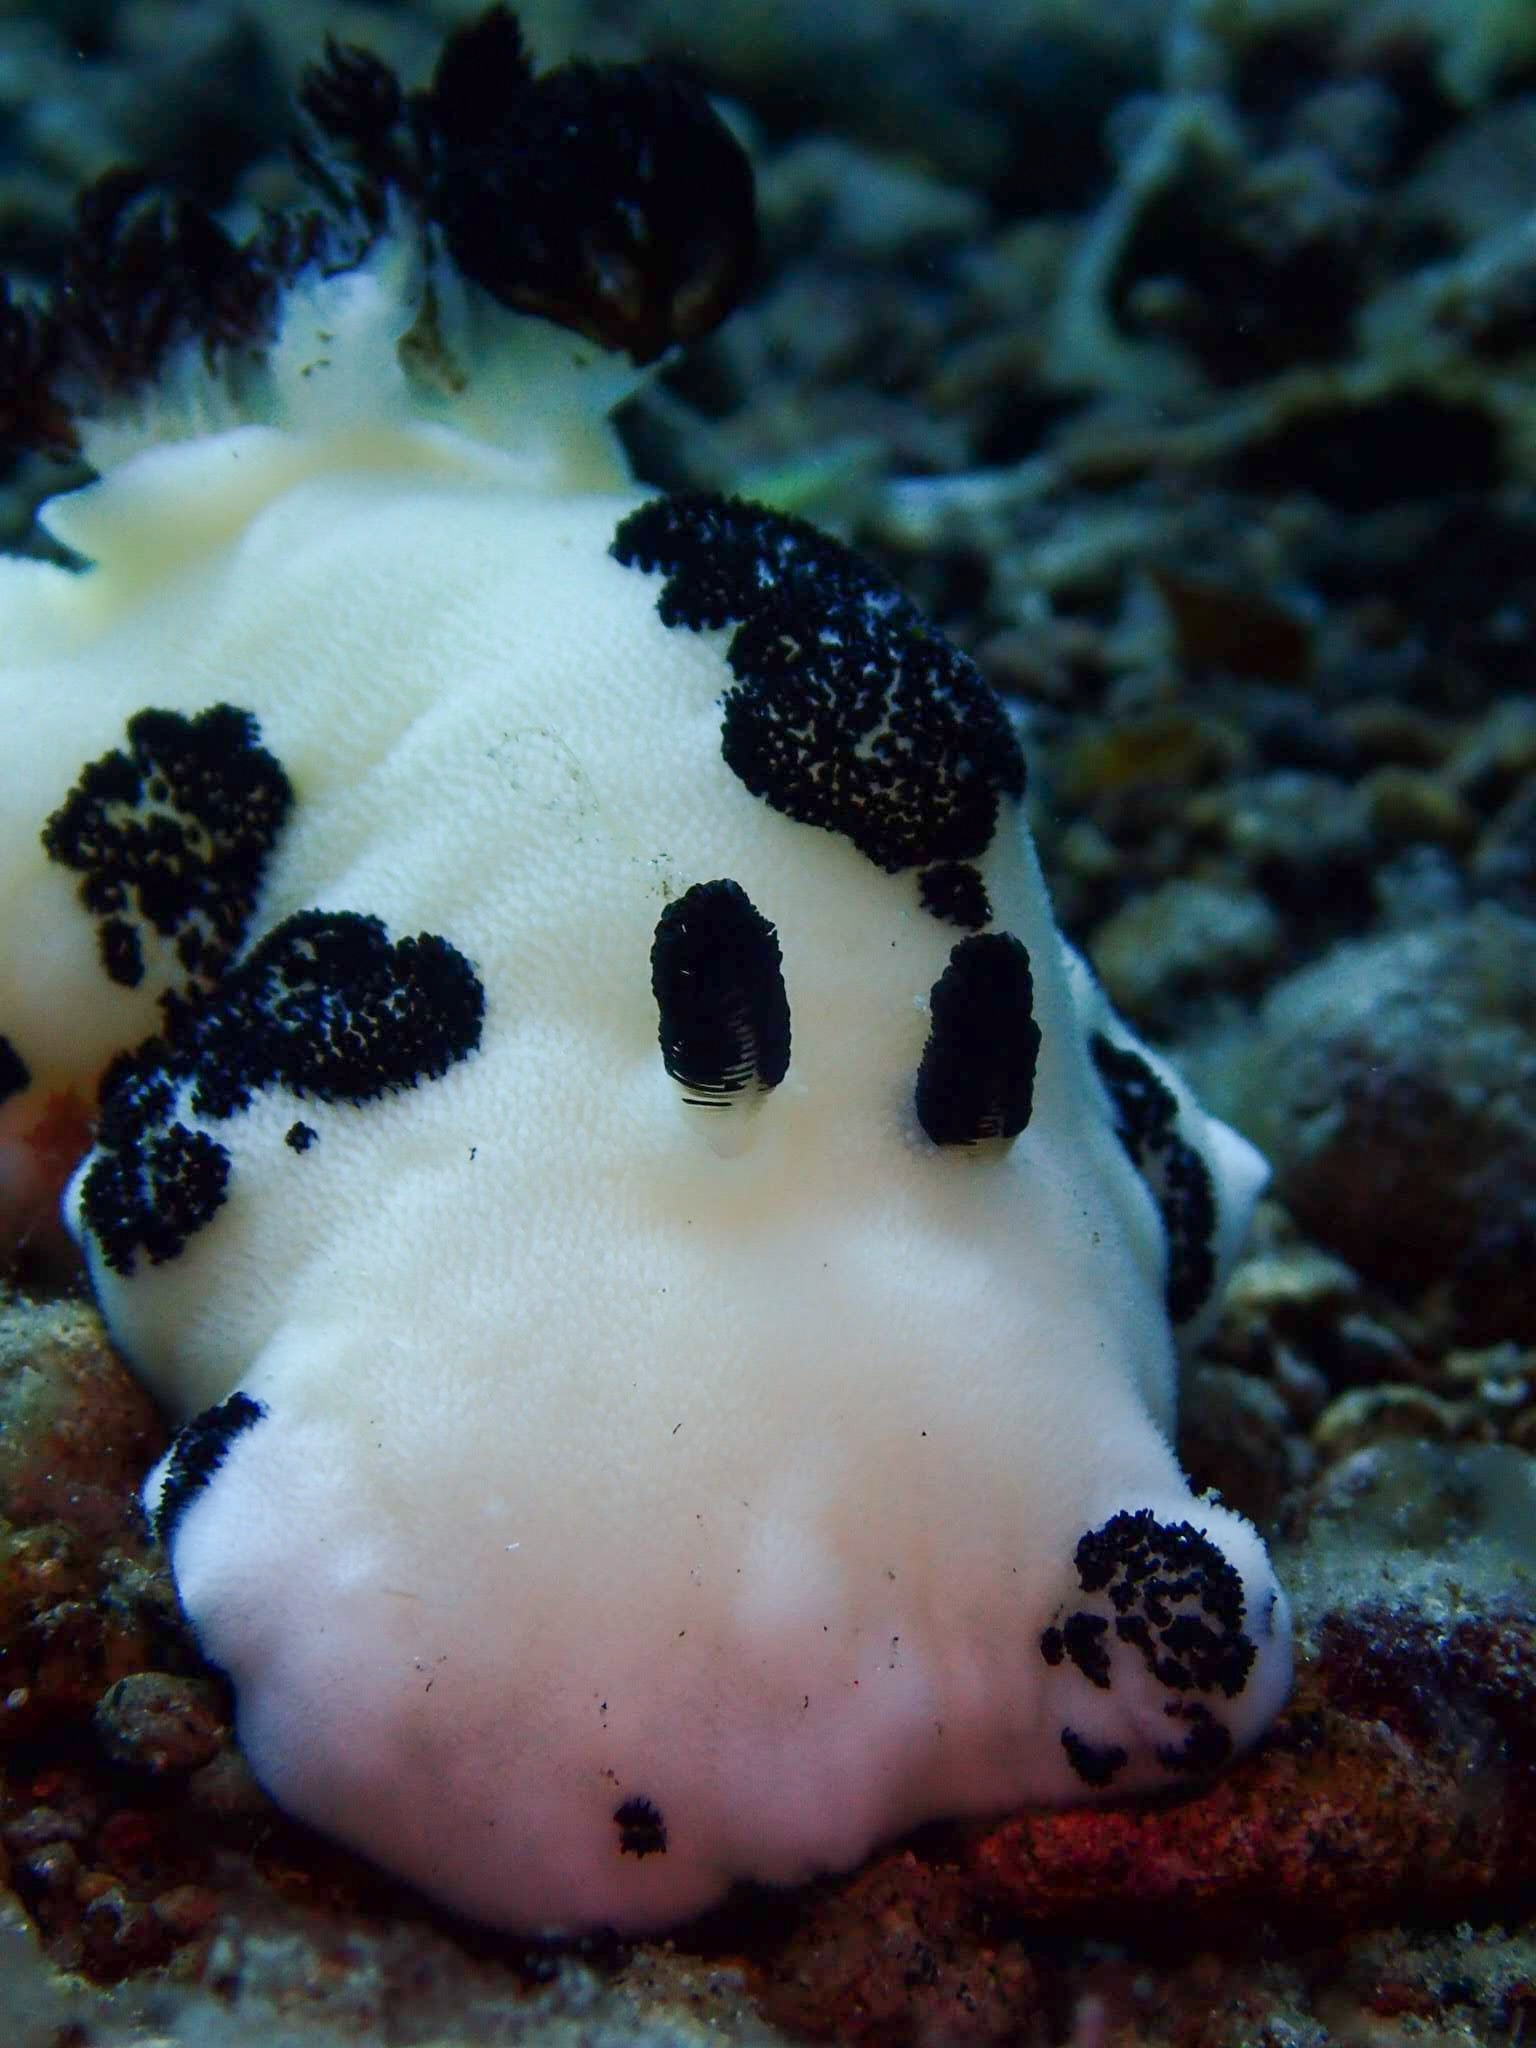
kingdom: Animalia
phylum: Mollusca
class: Gastropoda
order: Nudibranchia
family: Discodorididae
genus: Jorunna
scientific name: Jorunna funebris
